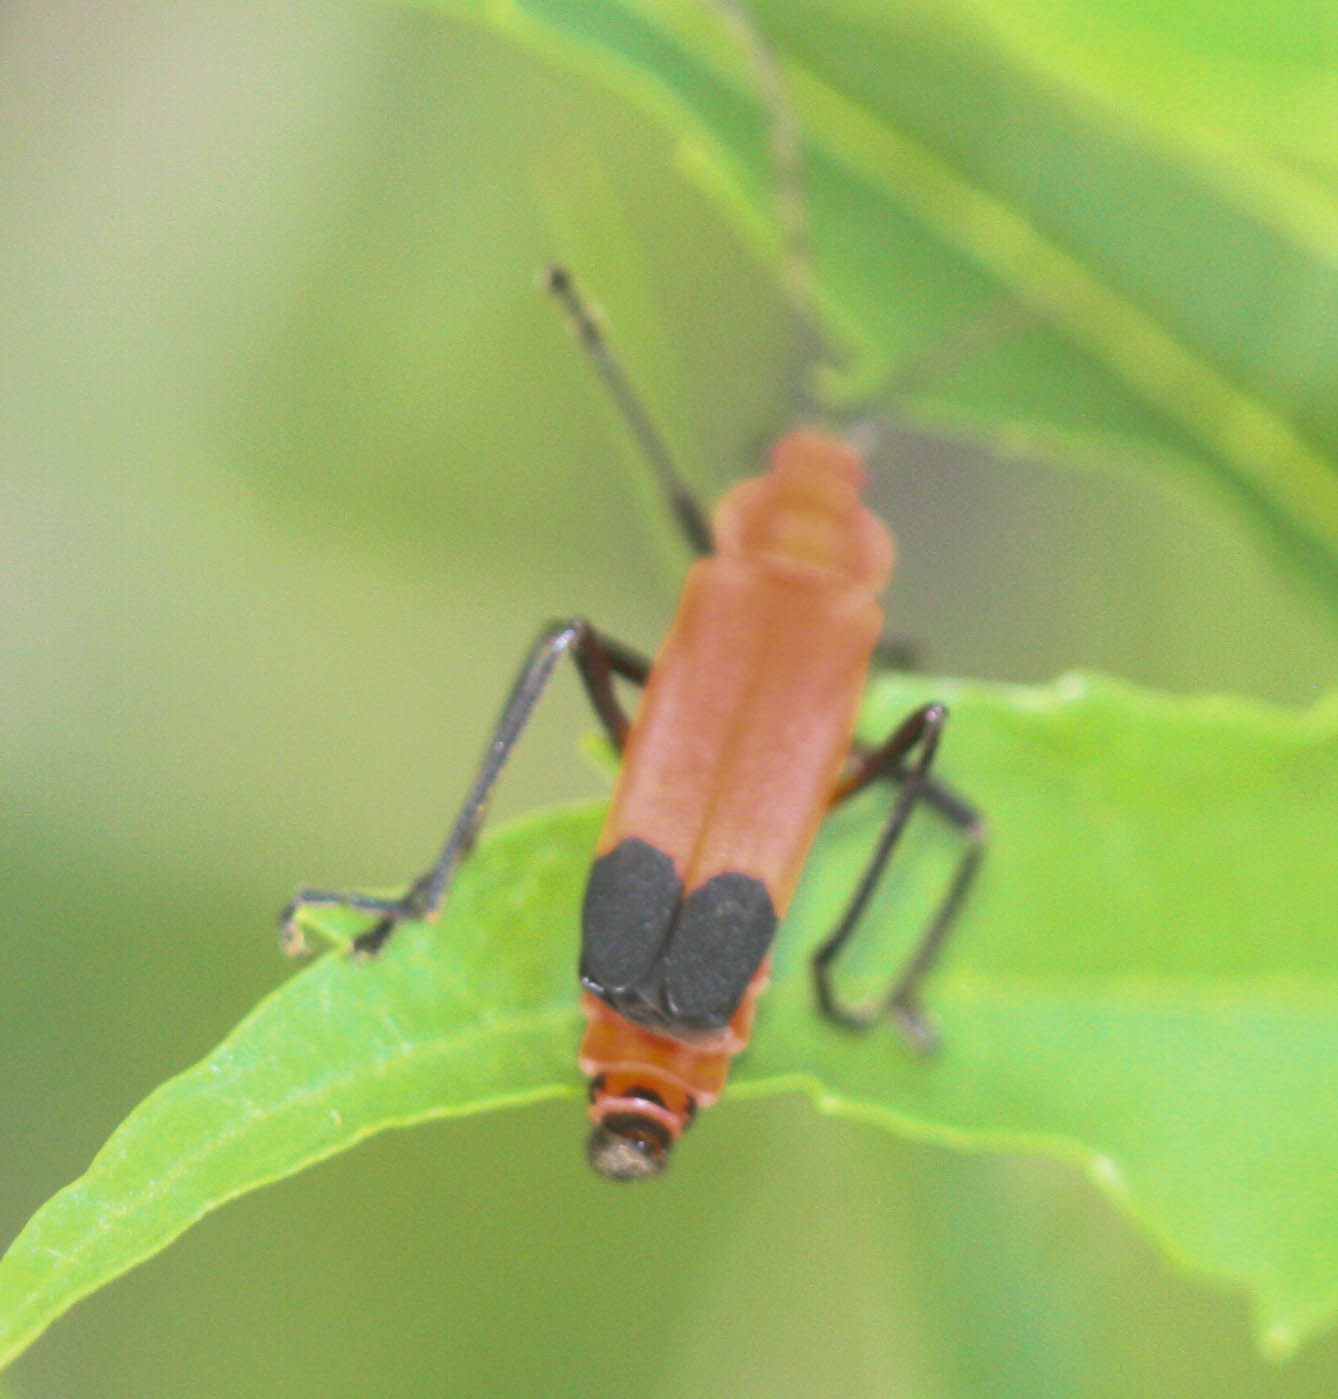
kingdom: Animalia
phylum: Arthropoda
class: Insecta
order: Coleoptera
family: Cantharidae
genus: Chauliognathus
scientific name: Chauliognathus lecontei
